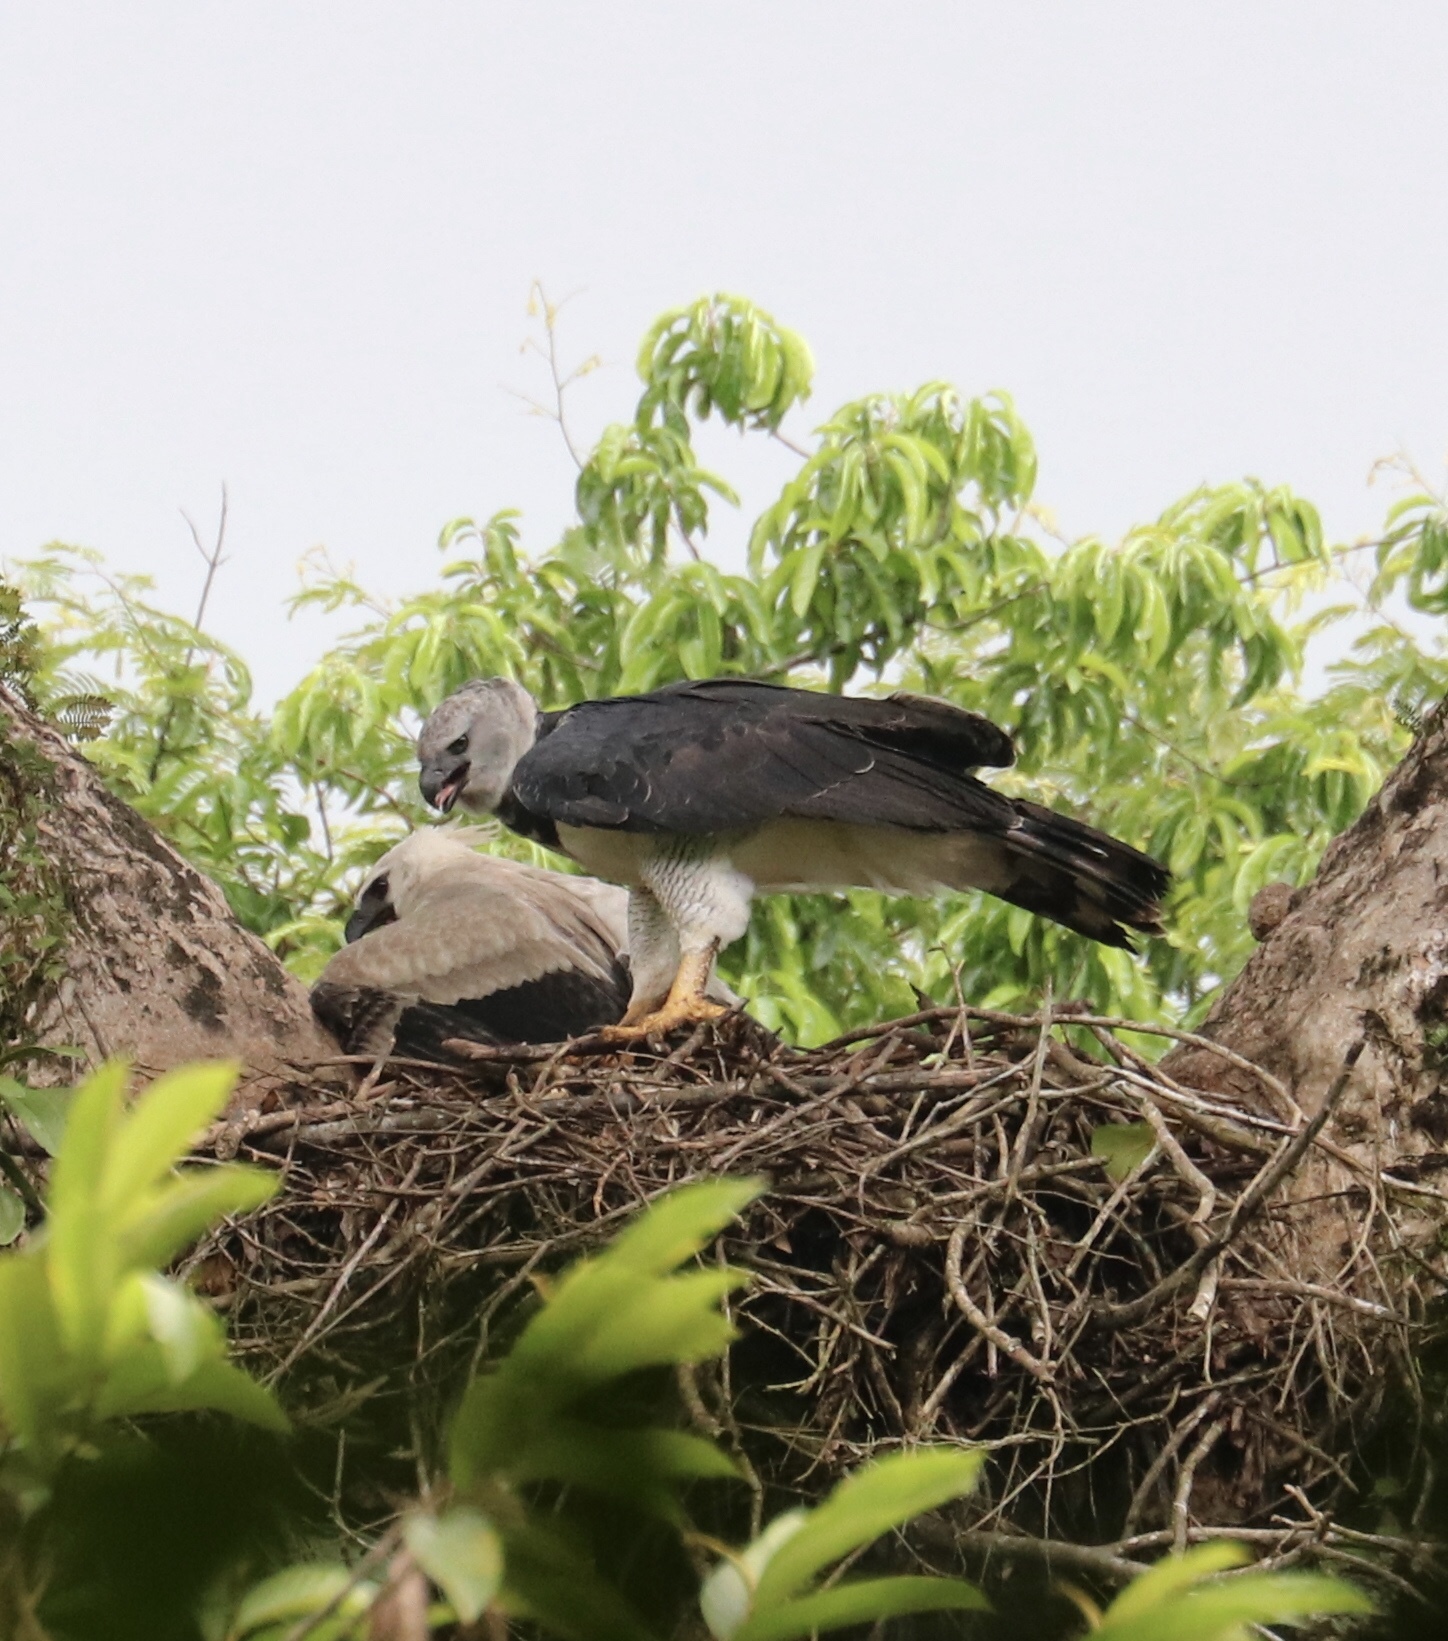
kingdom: Animalia
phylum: Chordata
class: Aves
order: Accipitriformes
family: Accipitridae
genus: Harpia
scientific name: Harpia harpyja
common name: Harpy eagle
